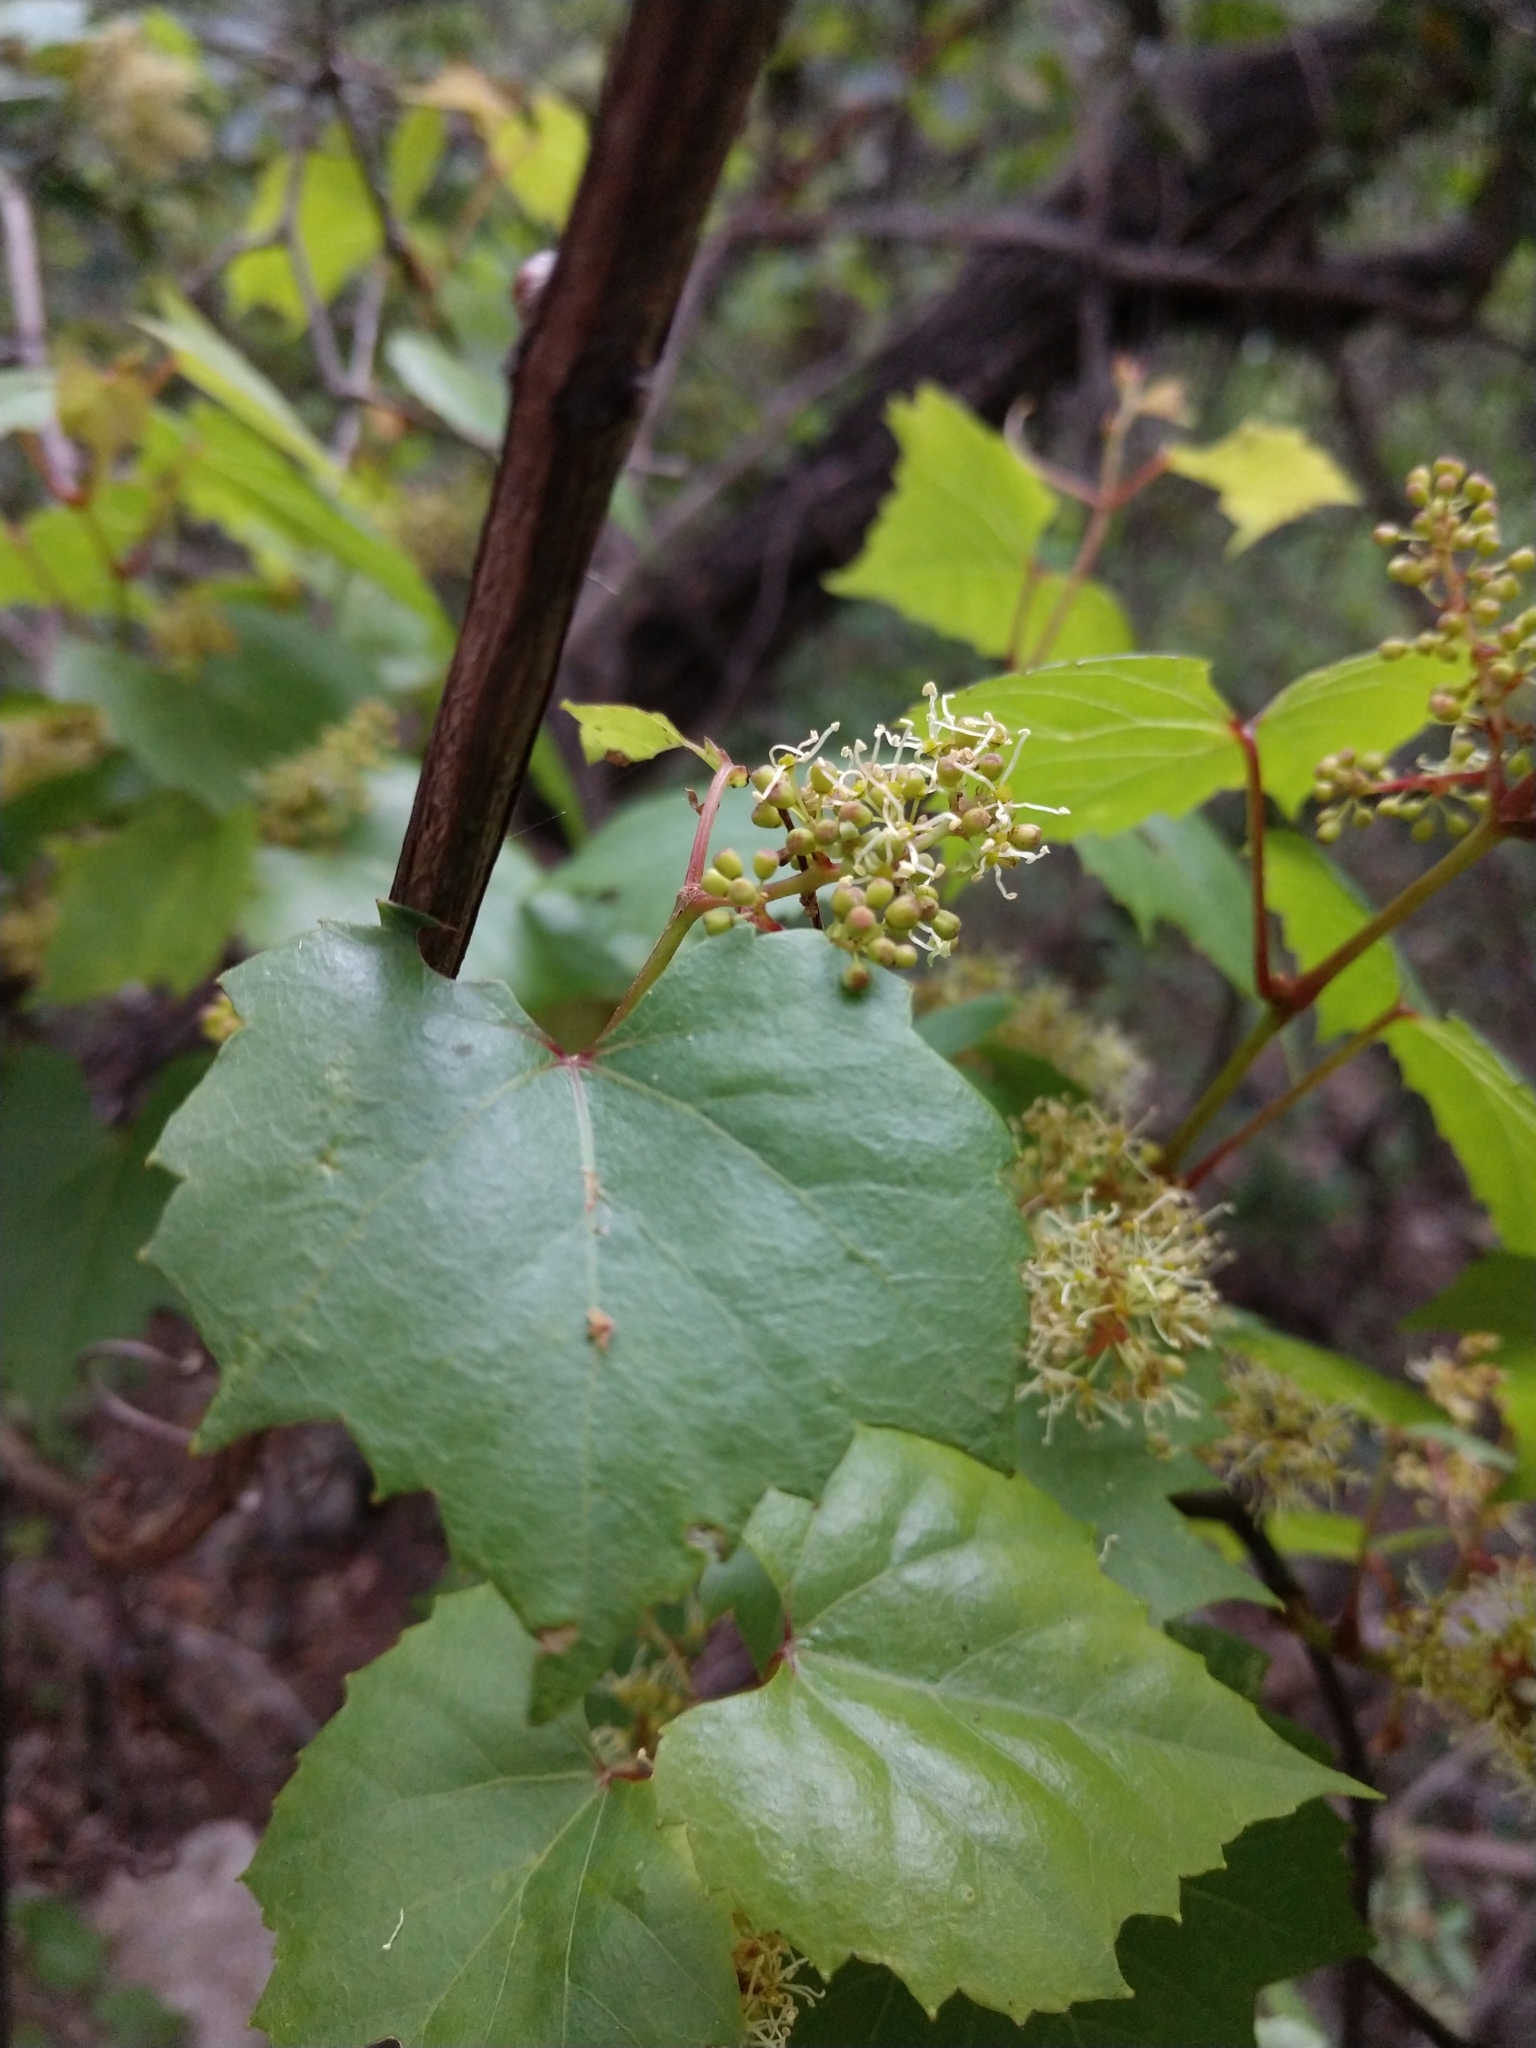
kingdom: Plantae
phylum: Tracheophyta
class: Magnoliopsida
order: Vitales
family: Vitaceae
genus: Vitis
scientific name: Vitis monticola
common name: Mountain grape
